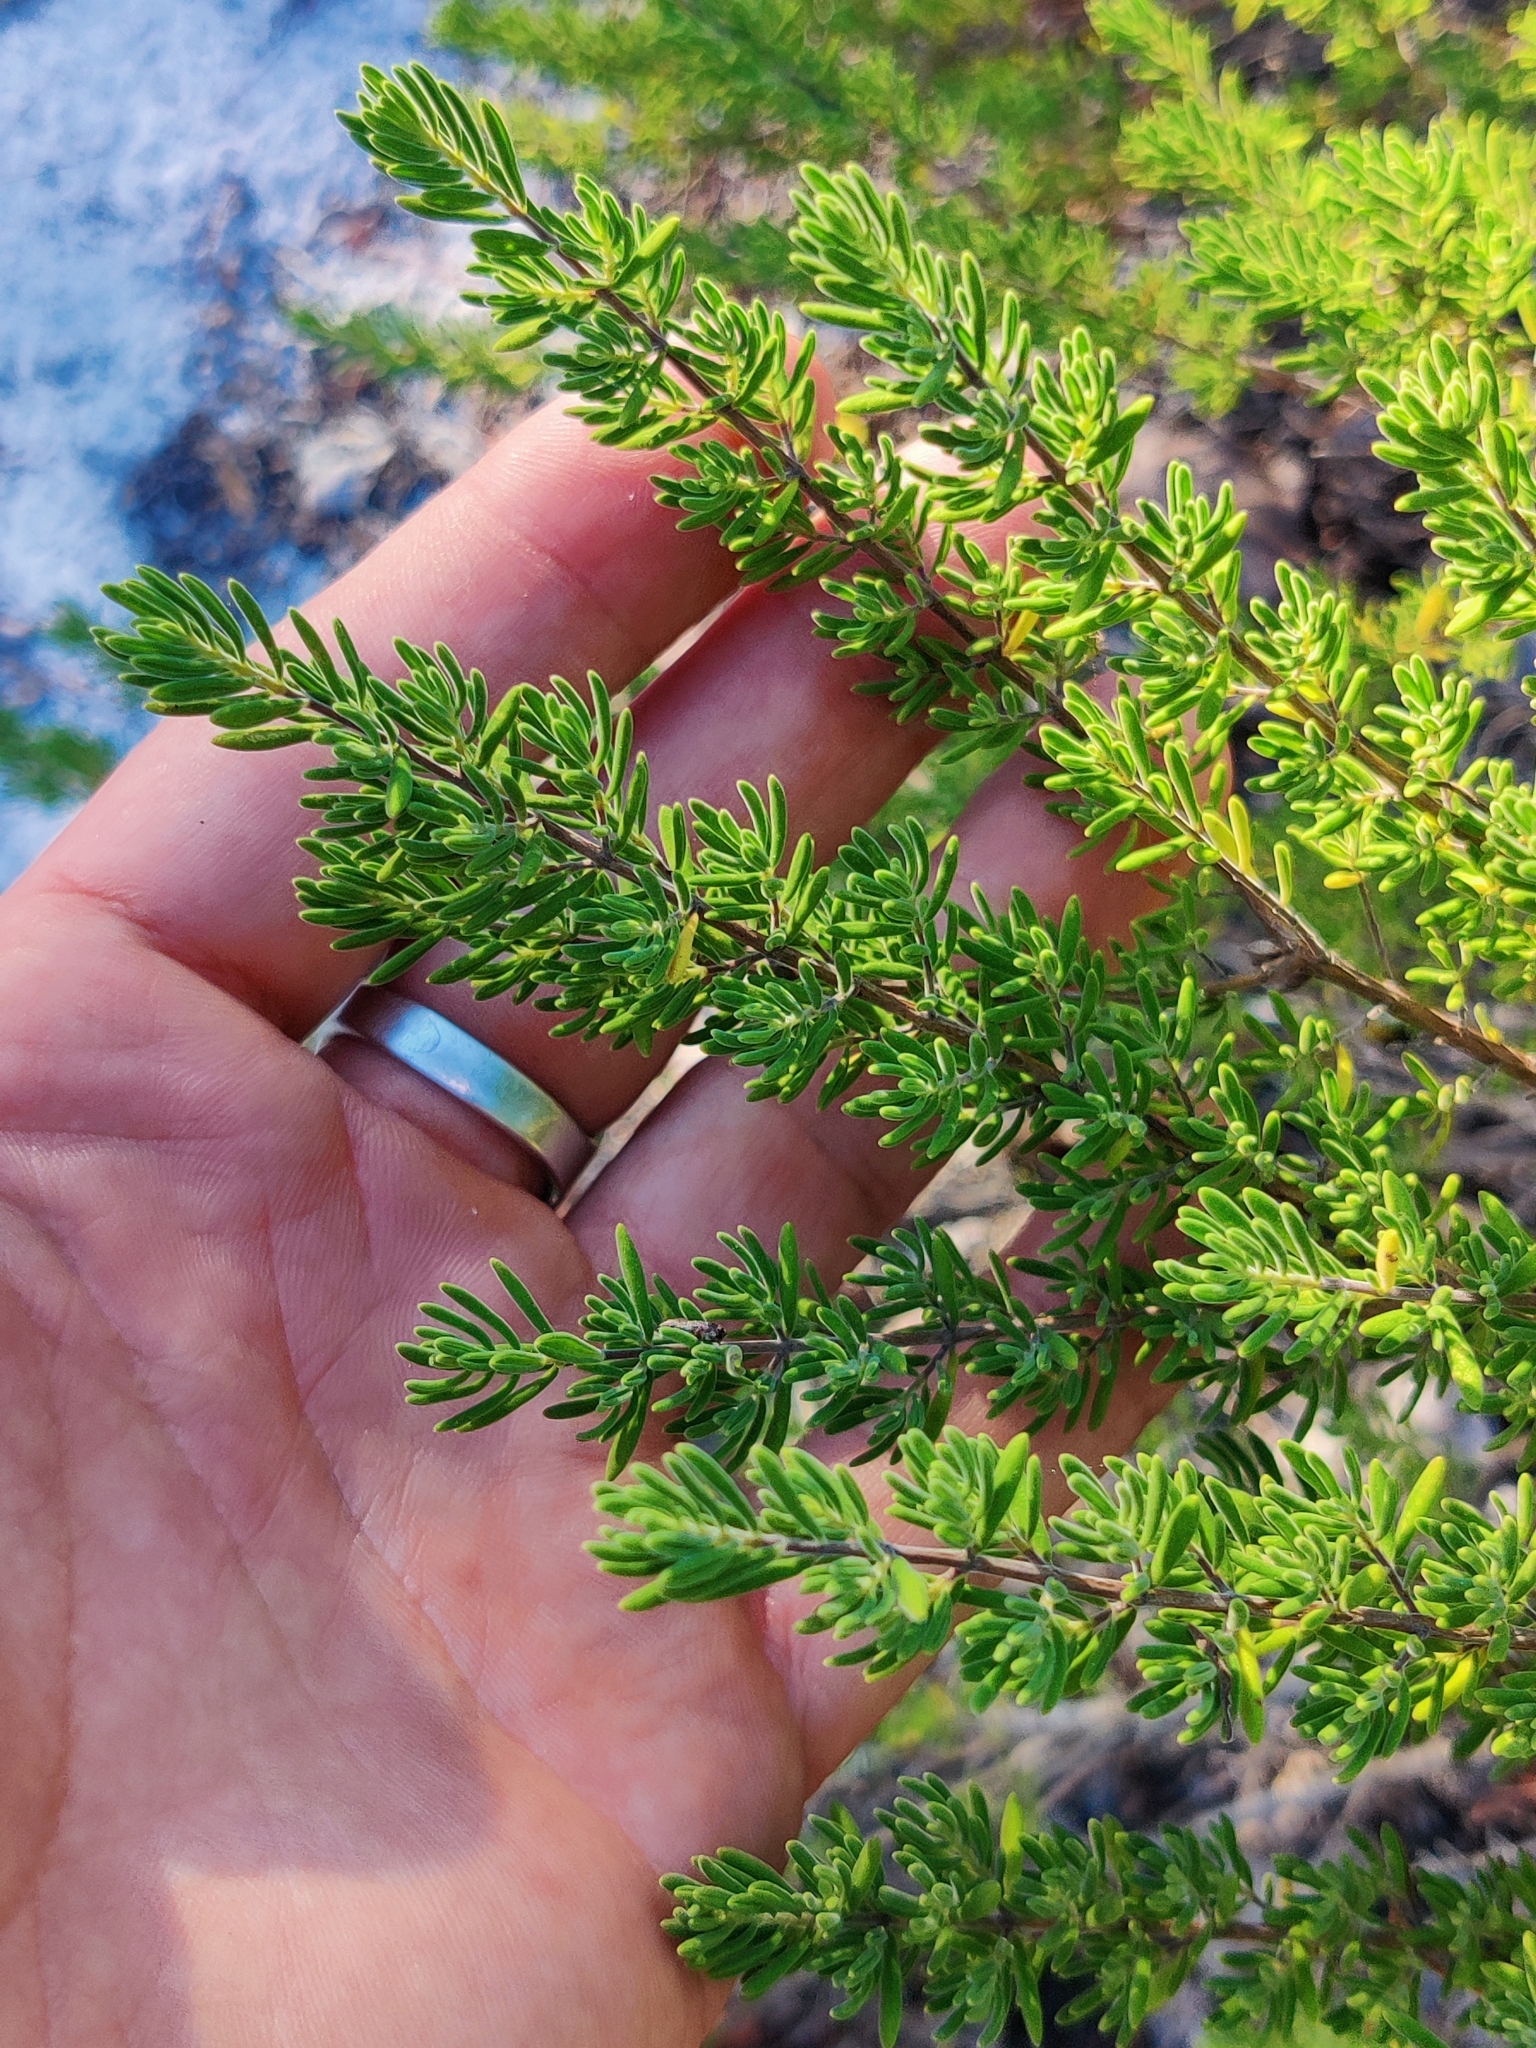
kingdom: Plantae
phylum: Tracheophyta
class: Magnoliopsida
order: Lamiales
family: Lamiaceae
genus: Clinopodium
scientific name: Clinopodium ashei
